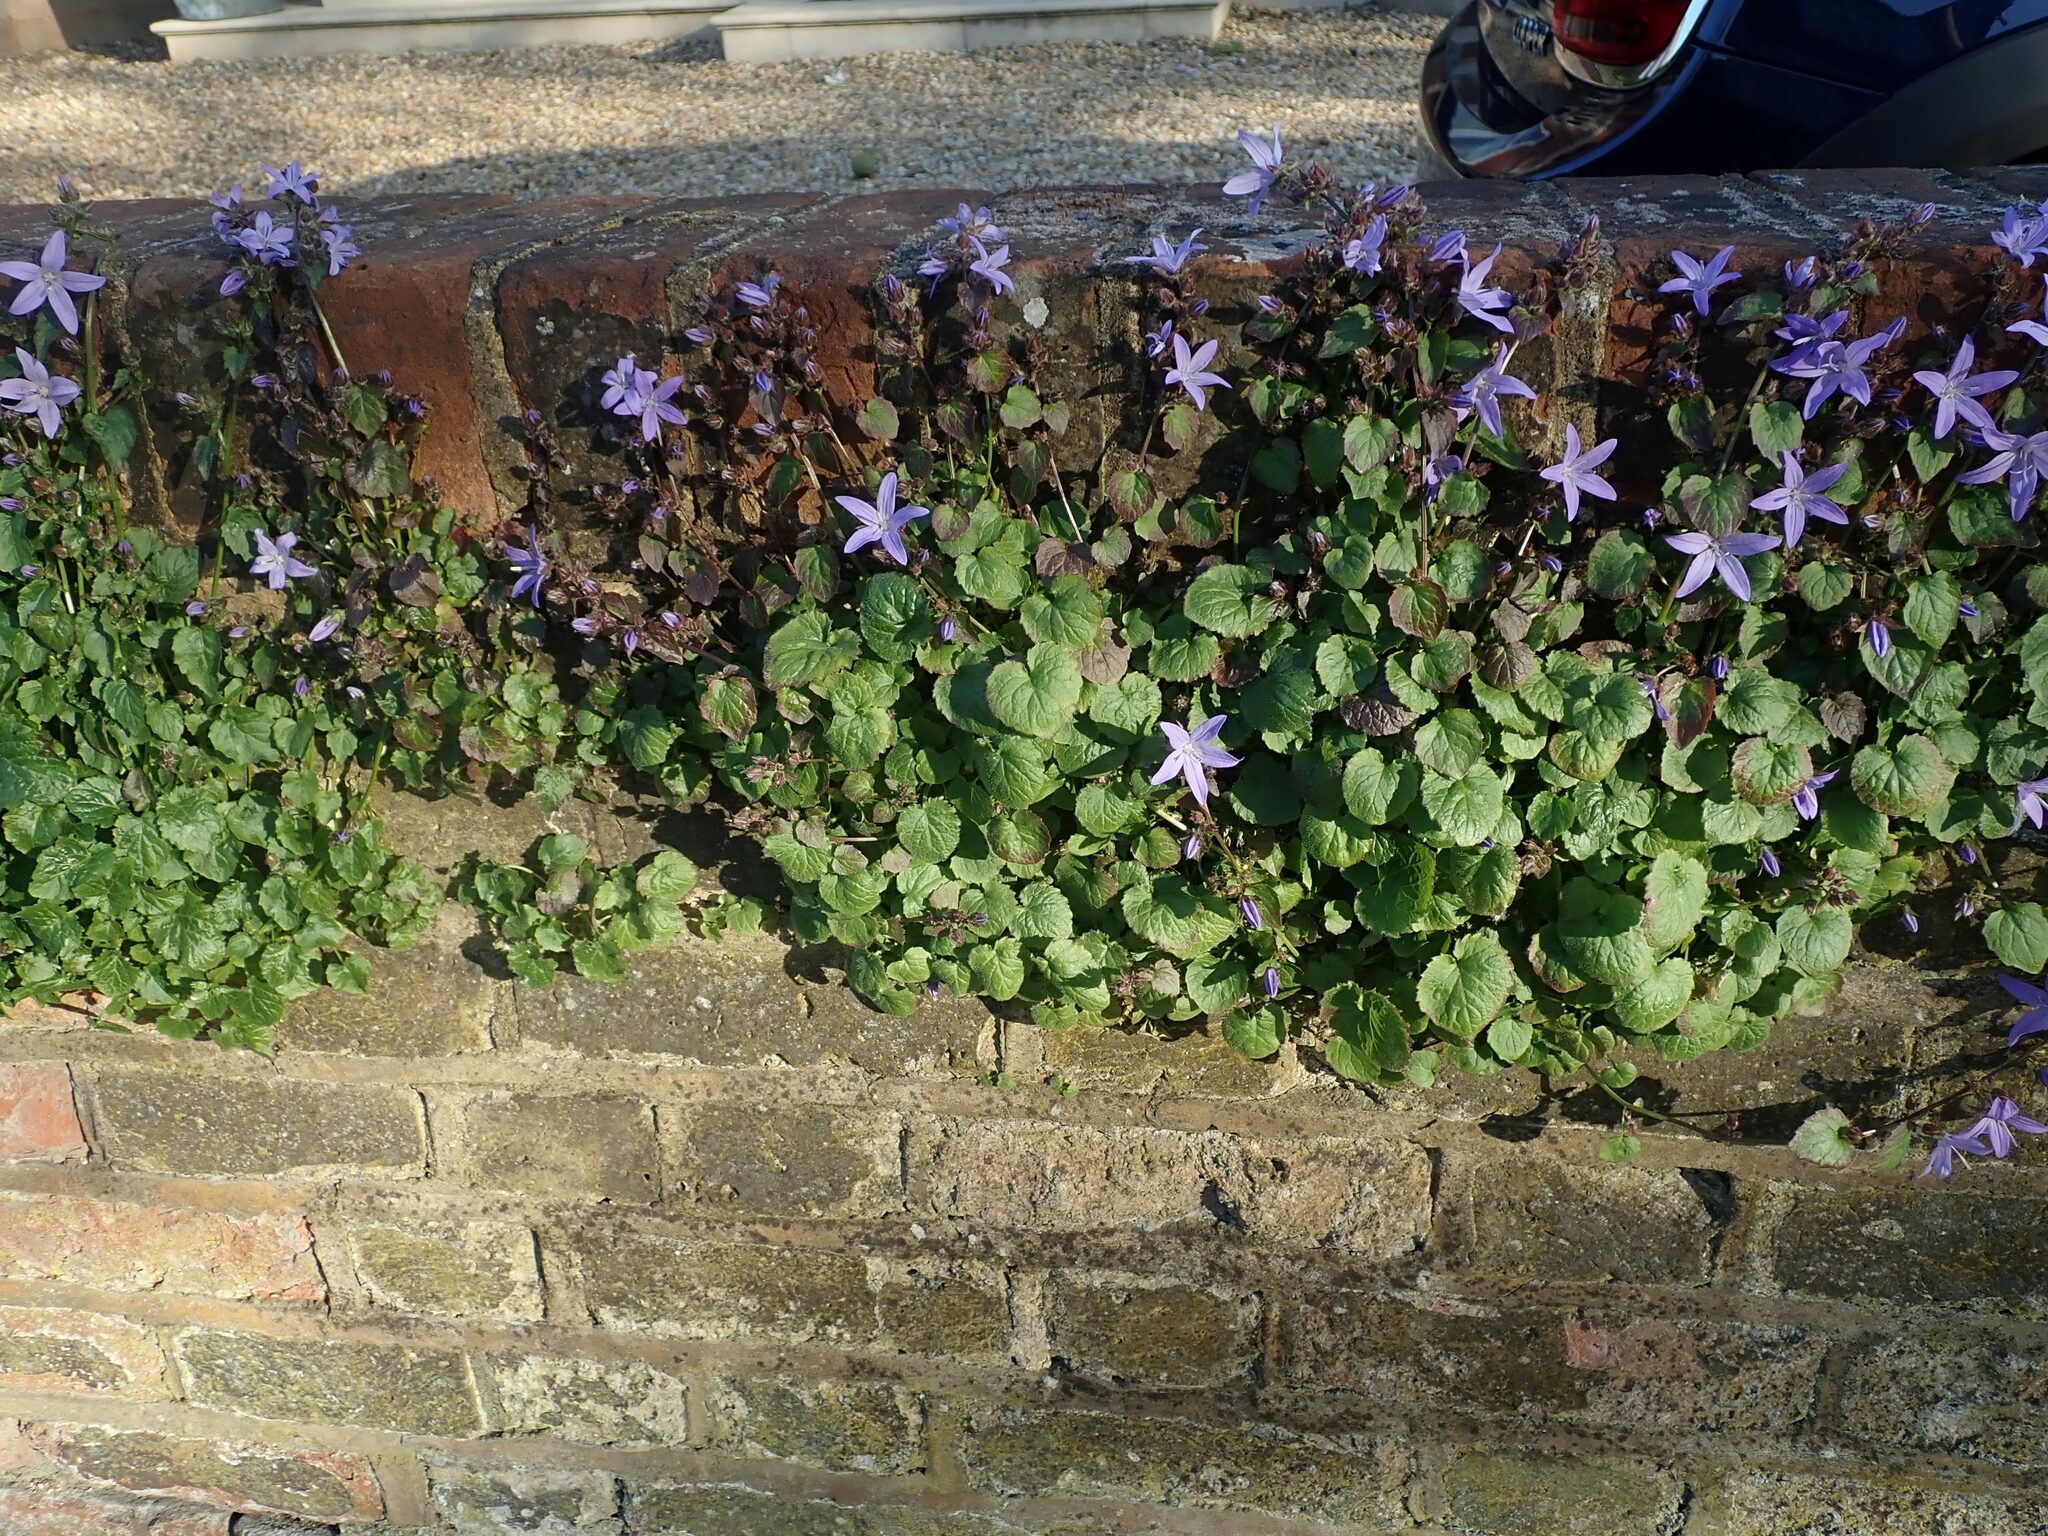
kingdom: Plantae
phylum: Tracheophyta
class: Magnoliopsida
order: Asterales
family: Campanulaceae
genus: Campanula
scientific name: Campanula poscharskyana
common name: Trailing bellflower
